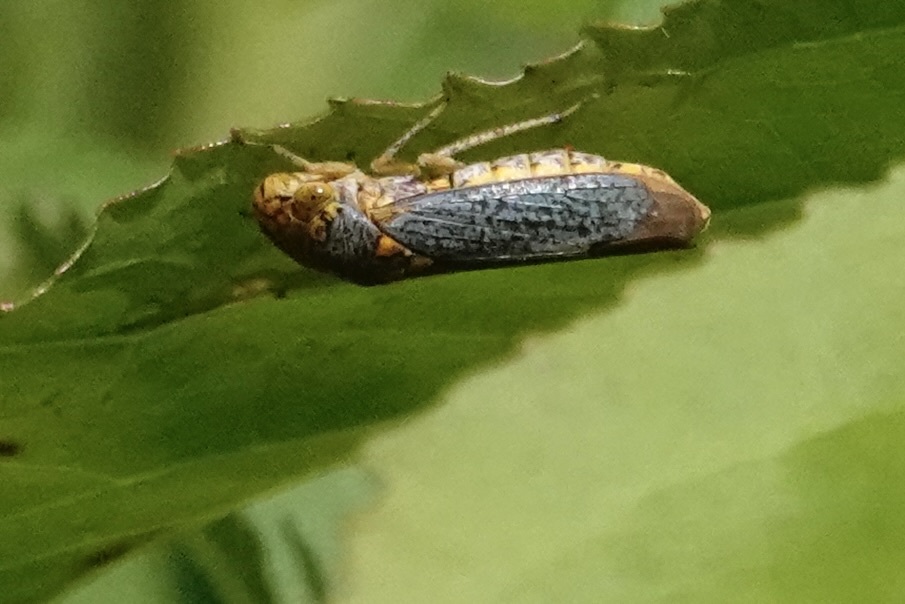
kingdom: Animalia
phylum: Arthropoda
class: Insecta
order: Hemiptera
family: Cicadellidae
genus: Oncometopia
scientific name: Oncometopia orbona
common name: Broad-headed sharpshooter
